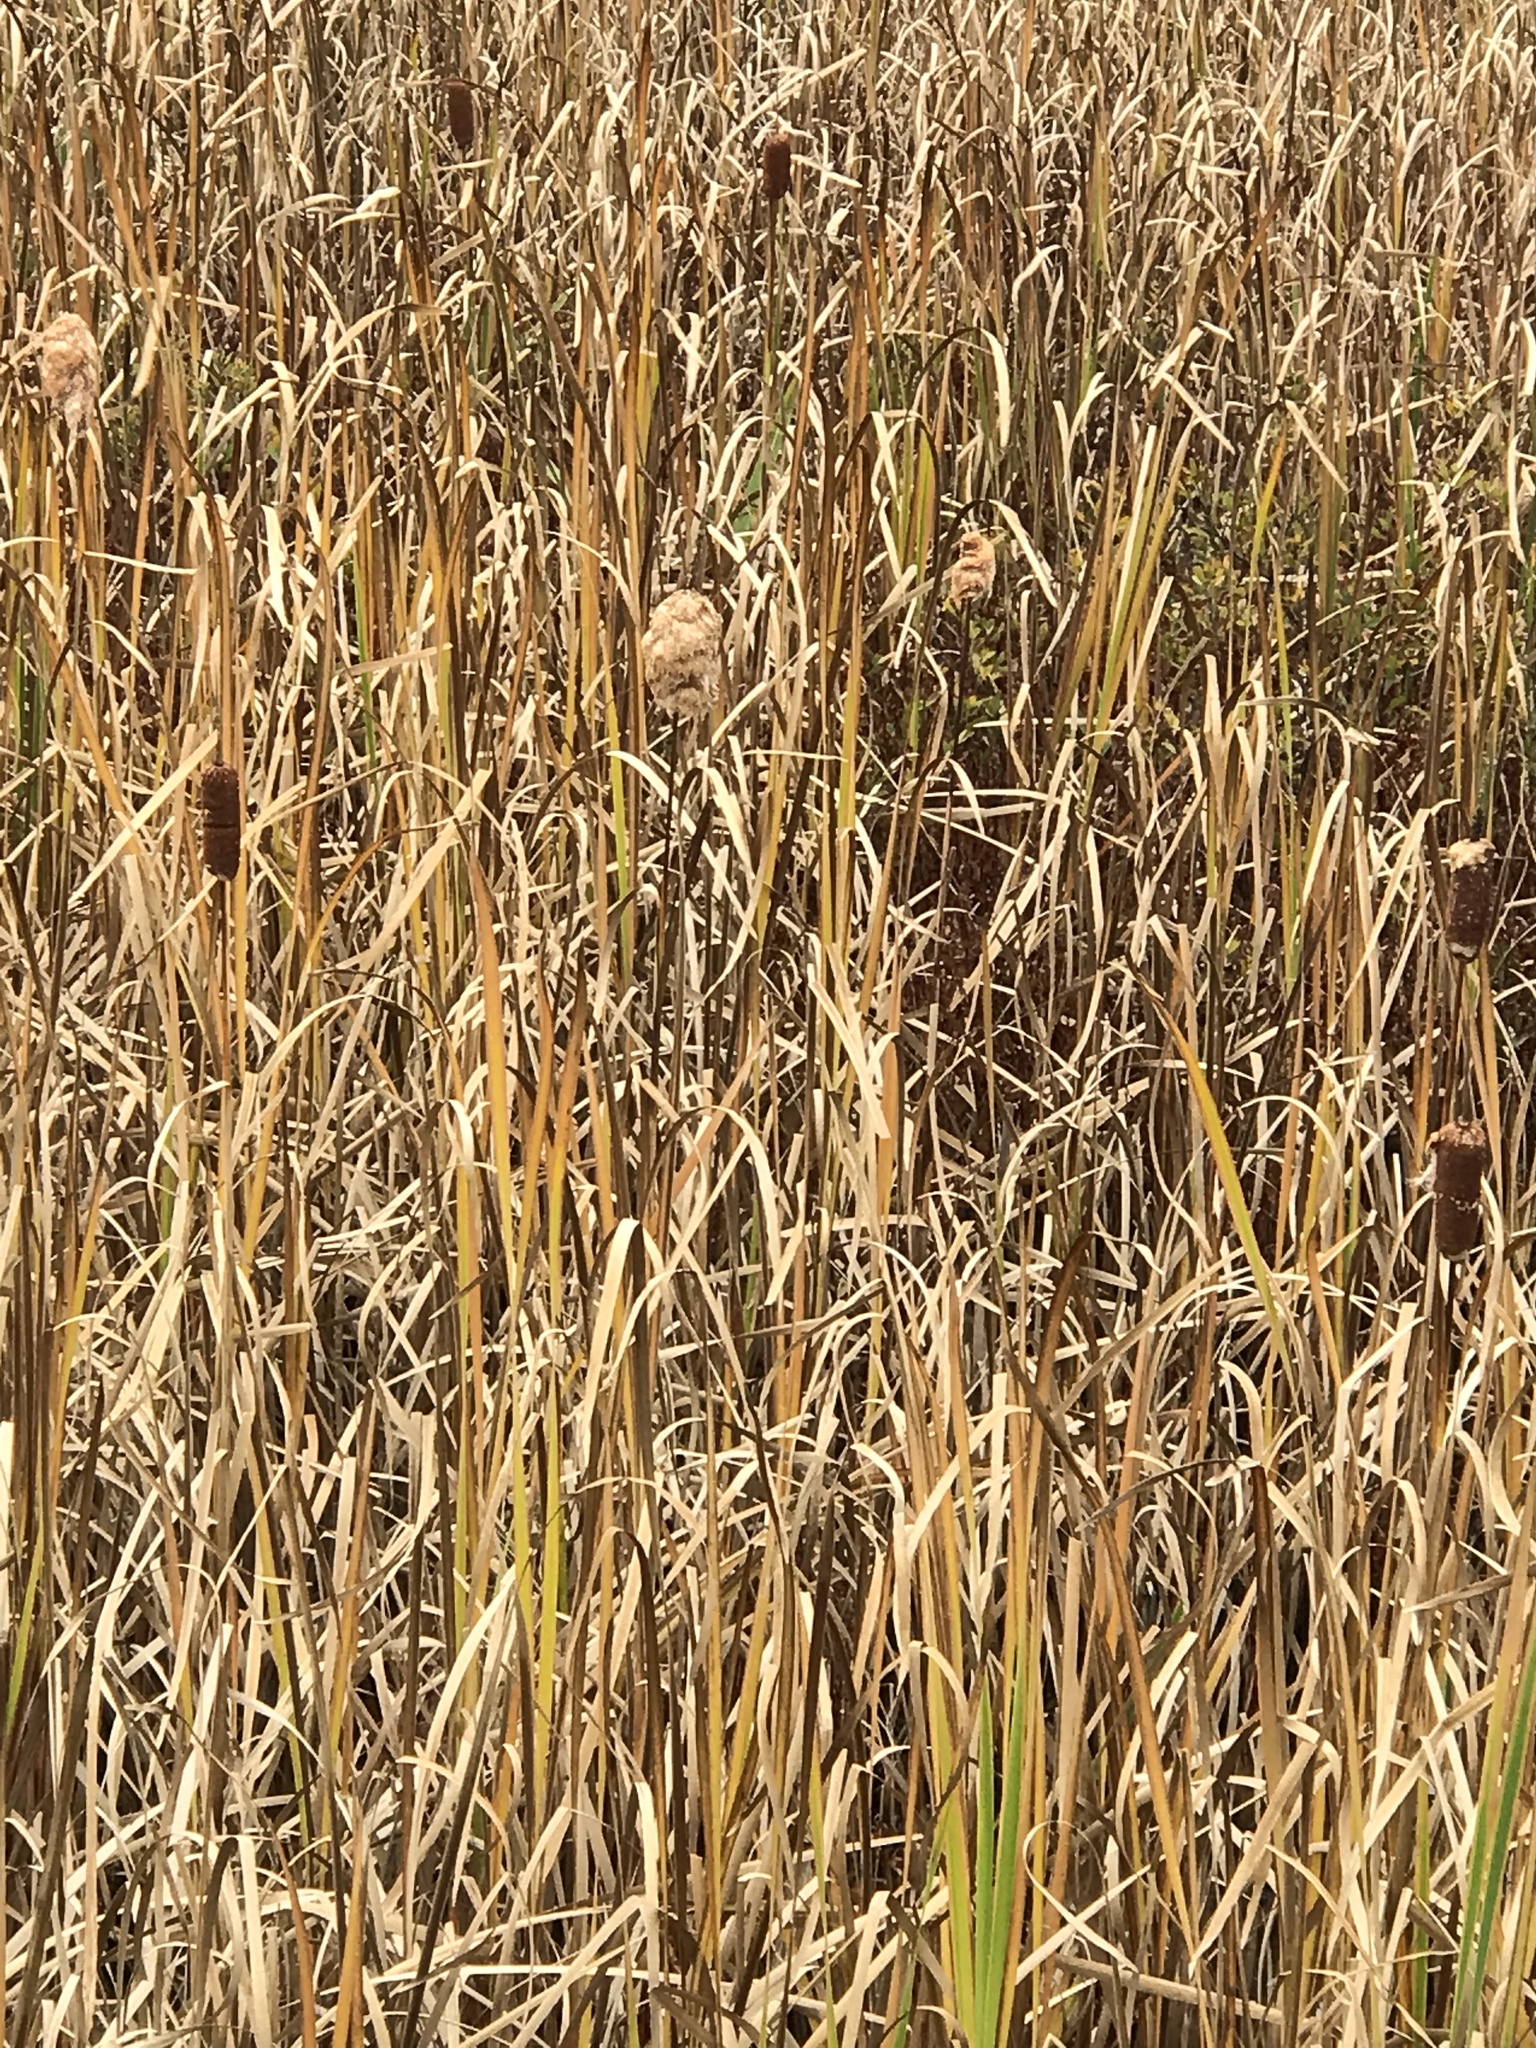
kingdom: Plantae
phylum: Tracheophyta
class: Liliopsida
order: Poales
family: Typhaceae
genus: Typha
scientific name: Typha latifolia
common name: Broadleaf cattail
